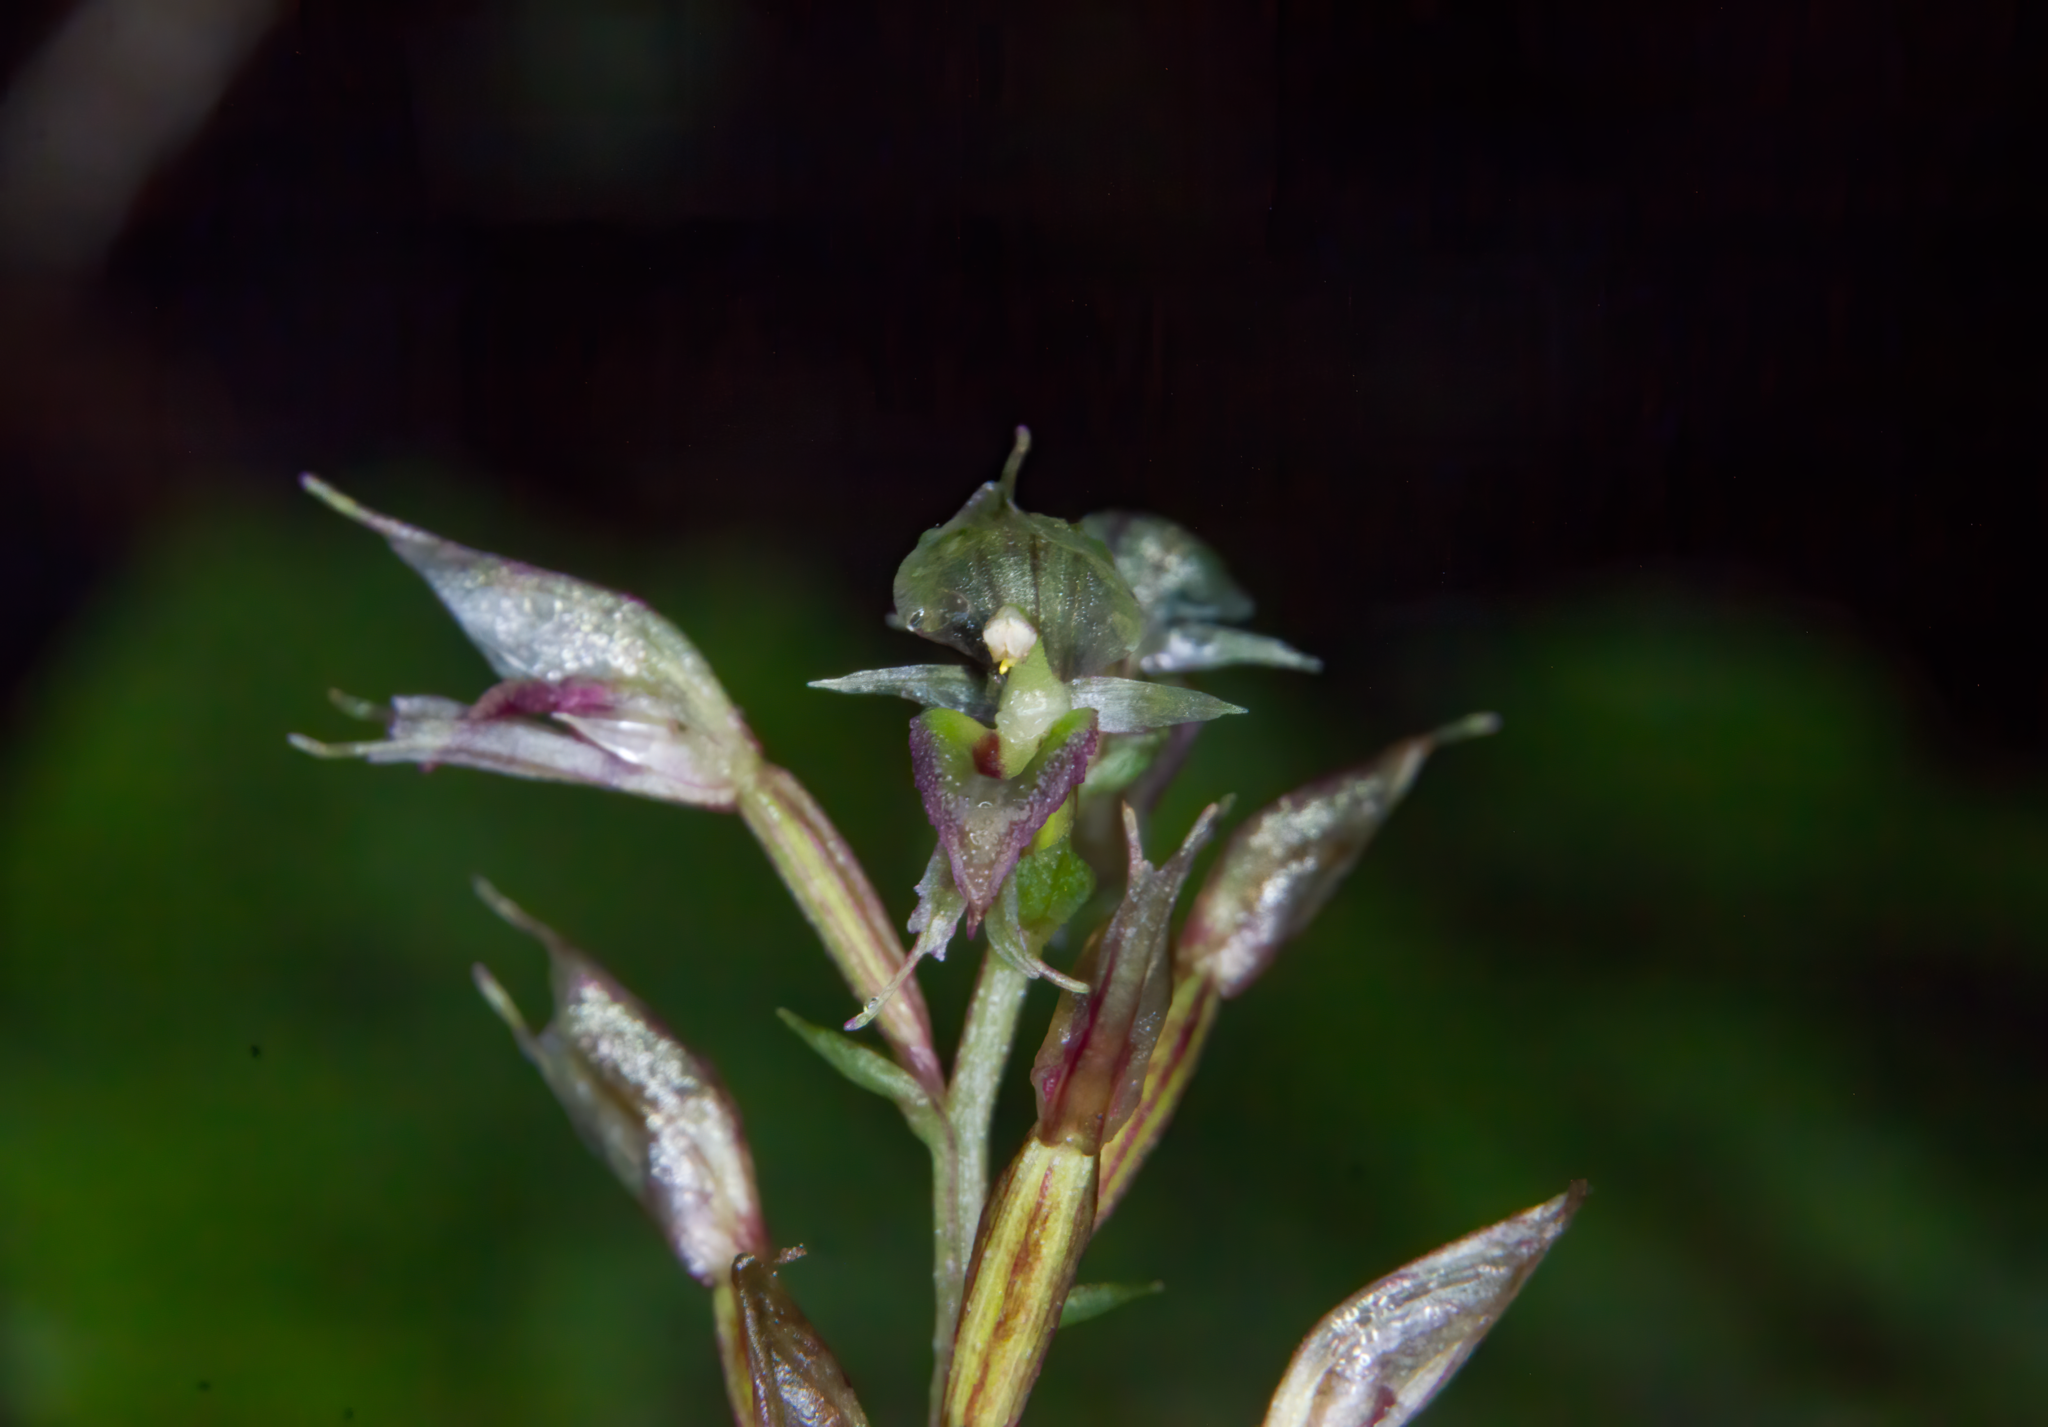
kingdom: Plantae
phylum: Tracheophyta
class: Liliopsida
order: Asparagales
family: Orchidaceae
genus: Acianthus
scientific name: Acianthus sinclairii
